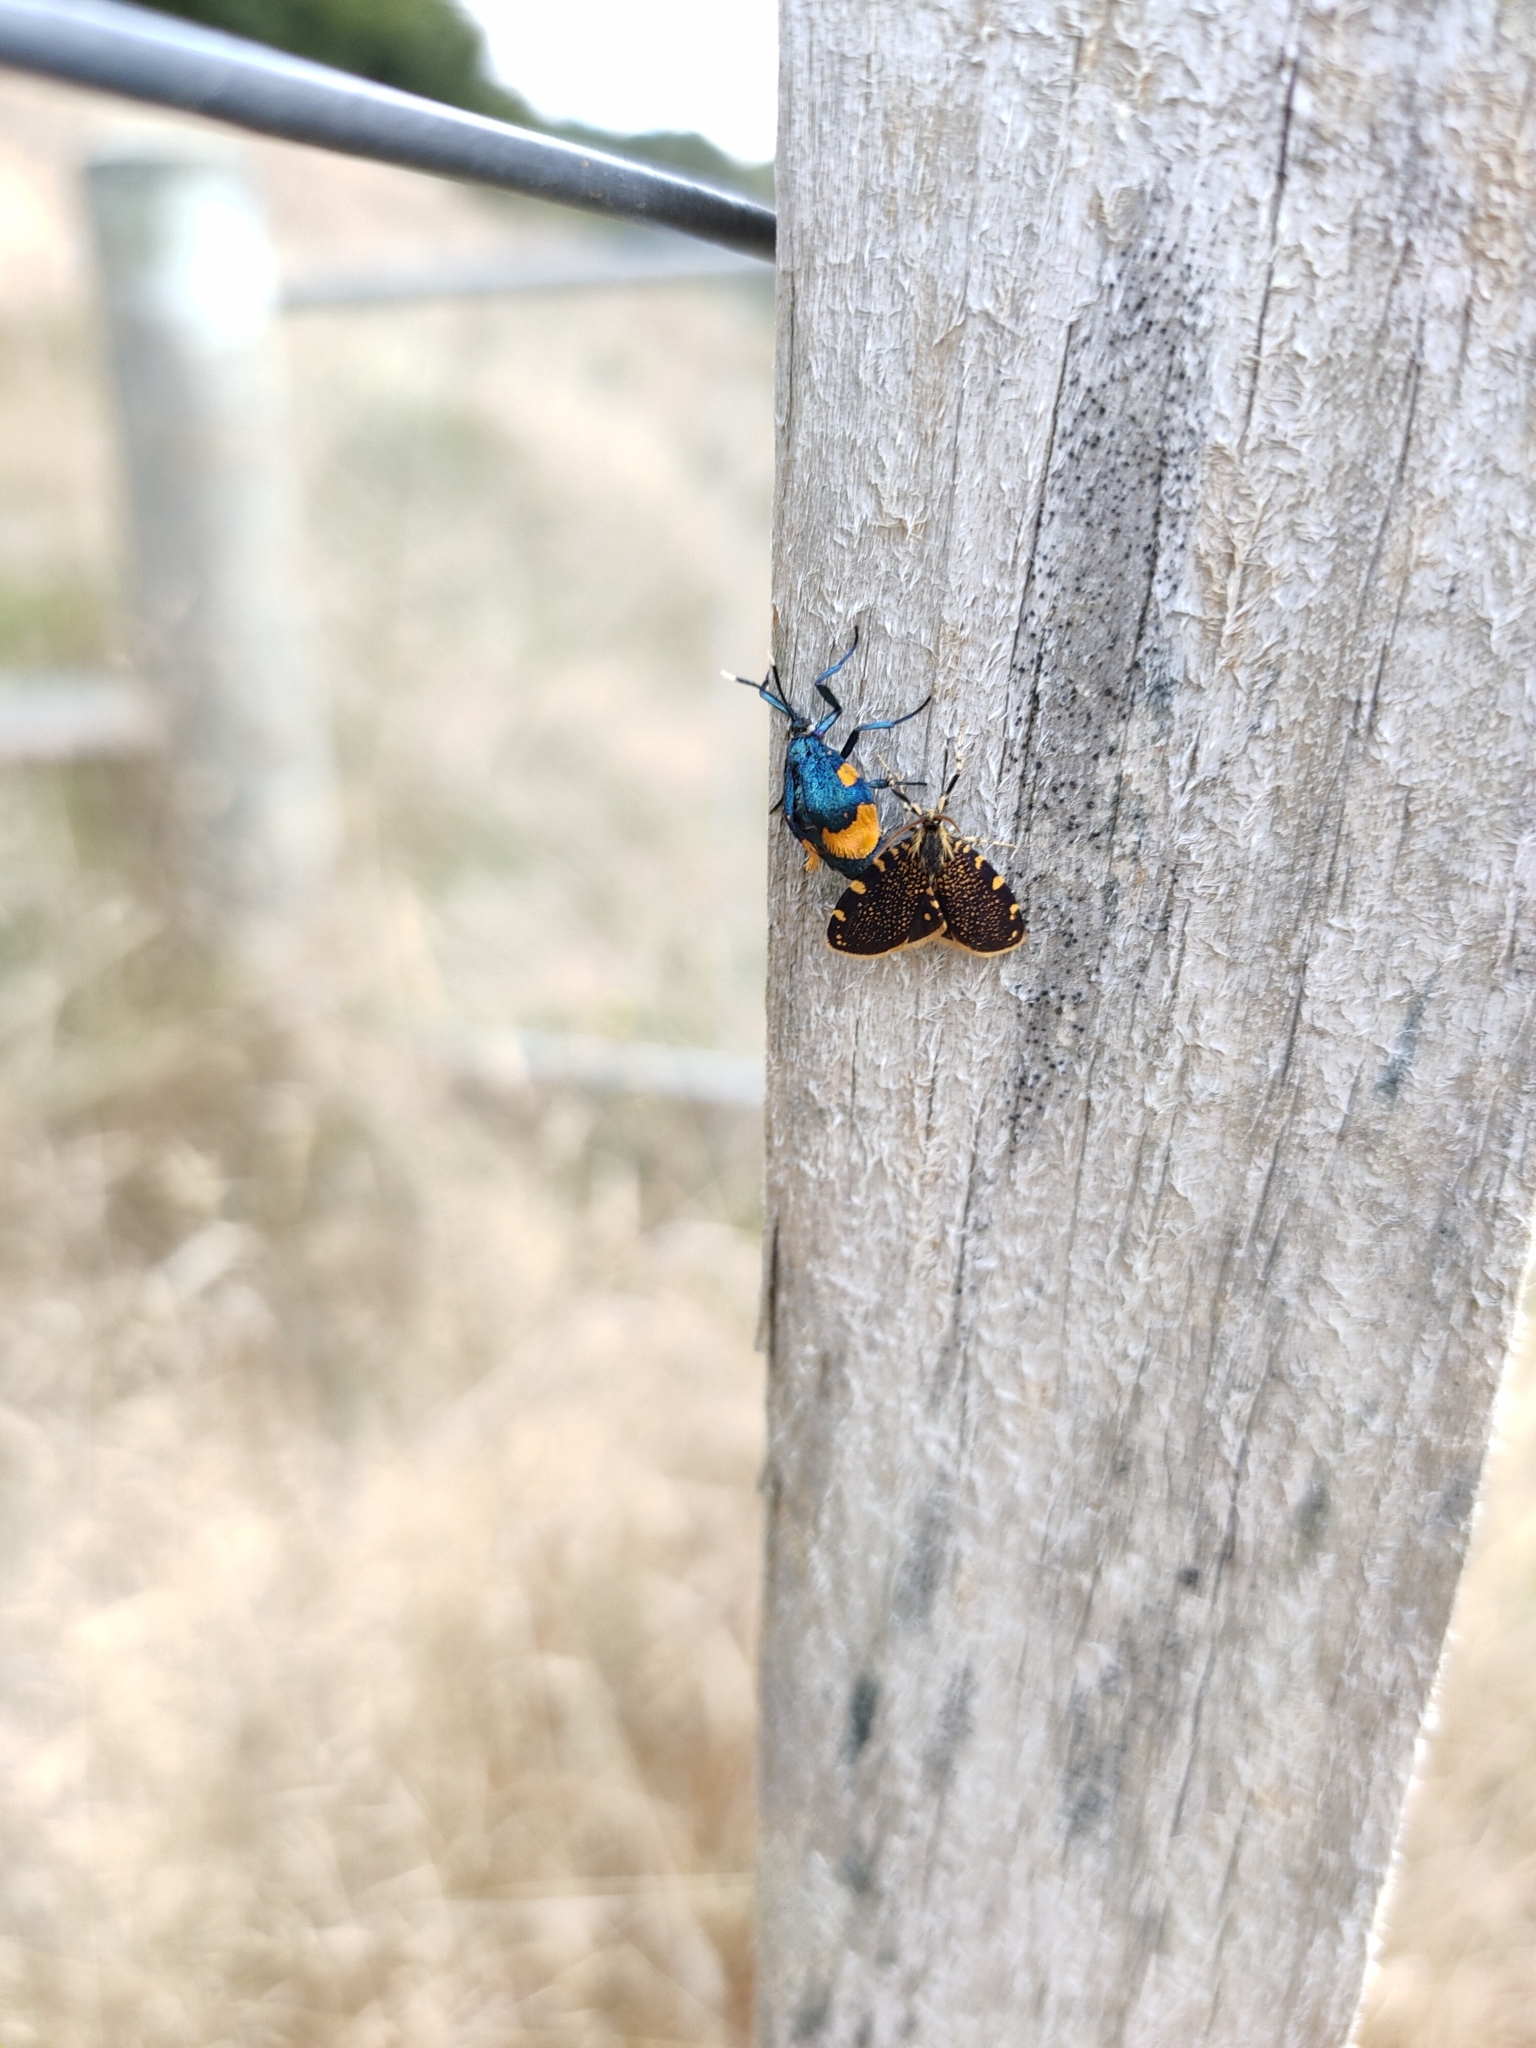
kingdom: Animalia
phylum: Arthropoda
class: Insecta
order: Lepidoptera
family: Psychidae
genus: Cebysa
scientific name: Cebysa leucotelus
